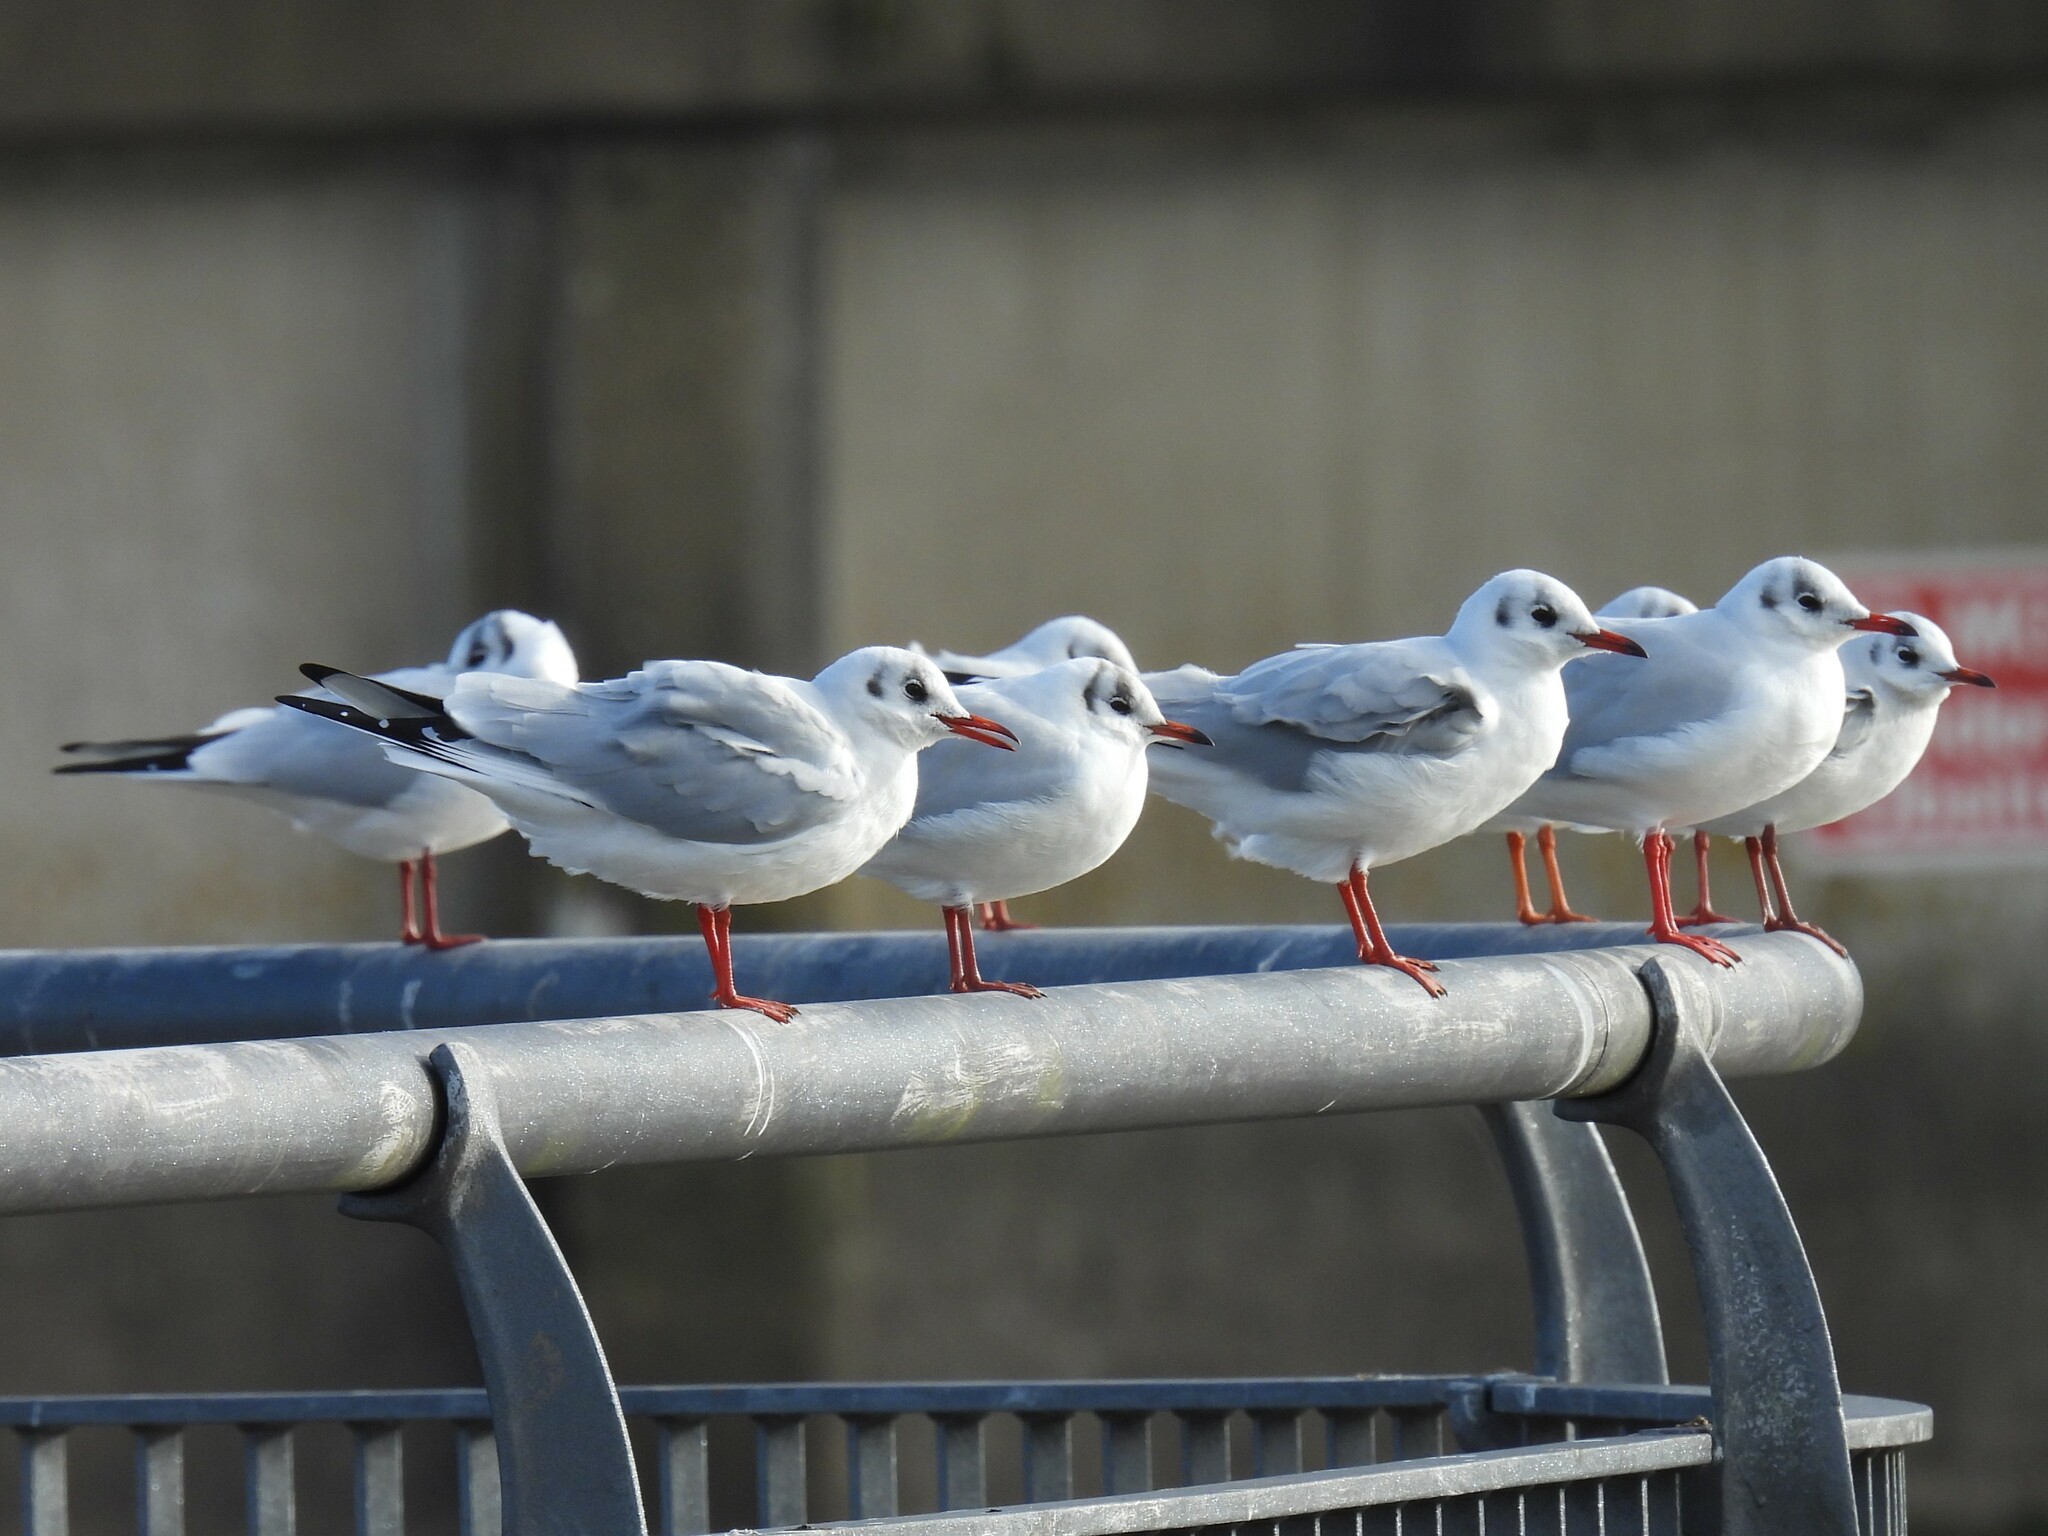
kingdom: Animalia
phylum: Chordata
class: Aves
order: Charadriiformes
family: Laridae
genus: Chroicocephalus
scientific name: Chroicocephalus ridibundus
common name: Black-headed gull
